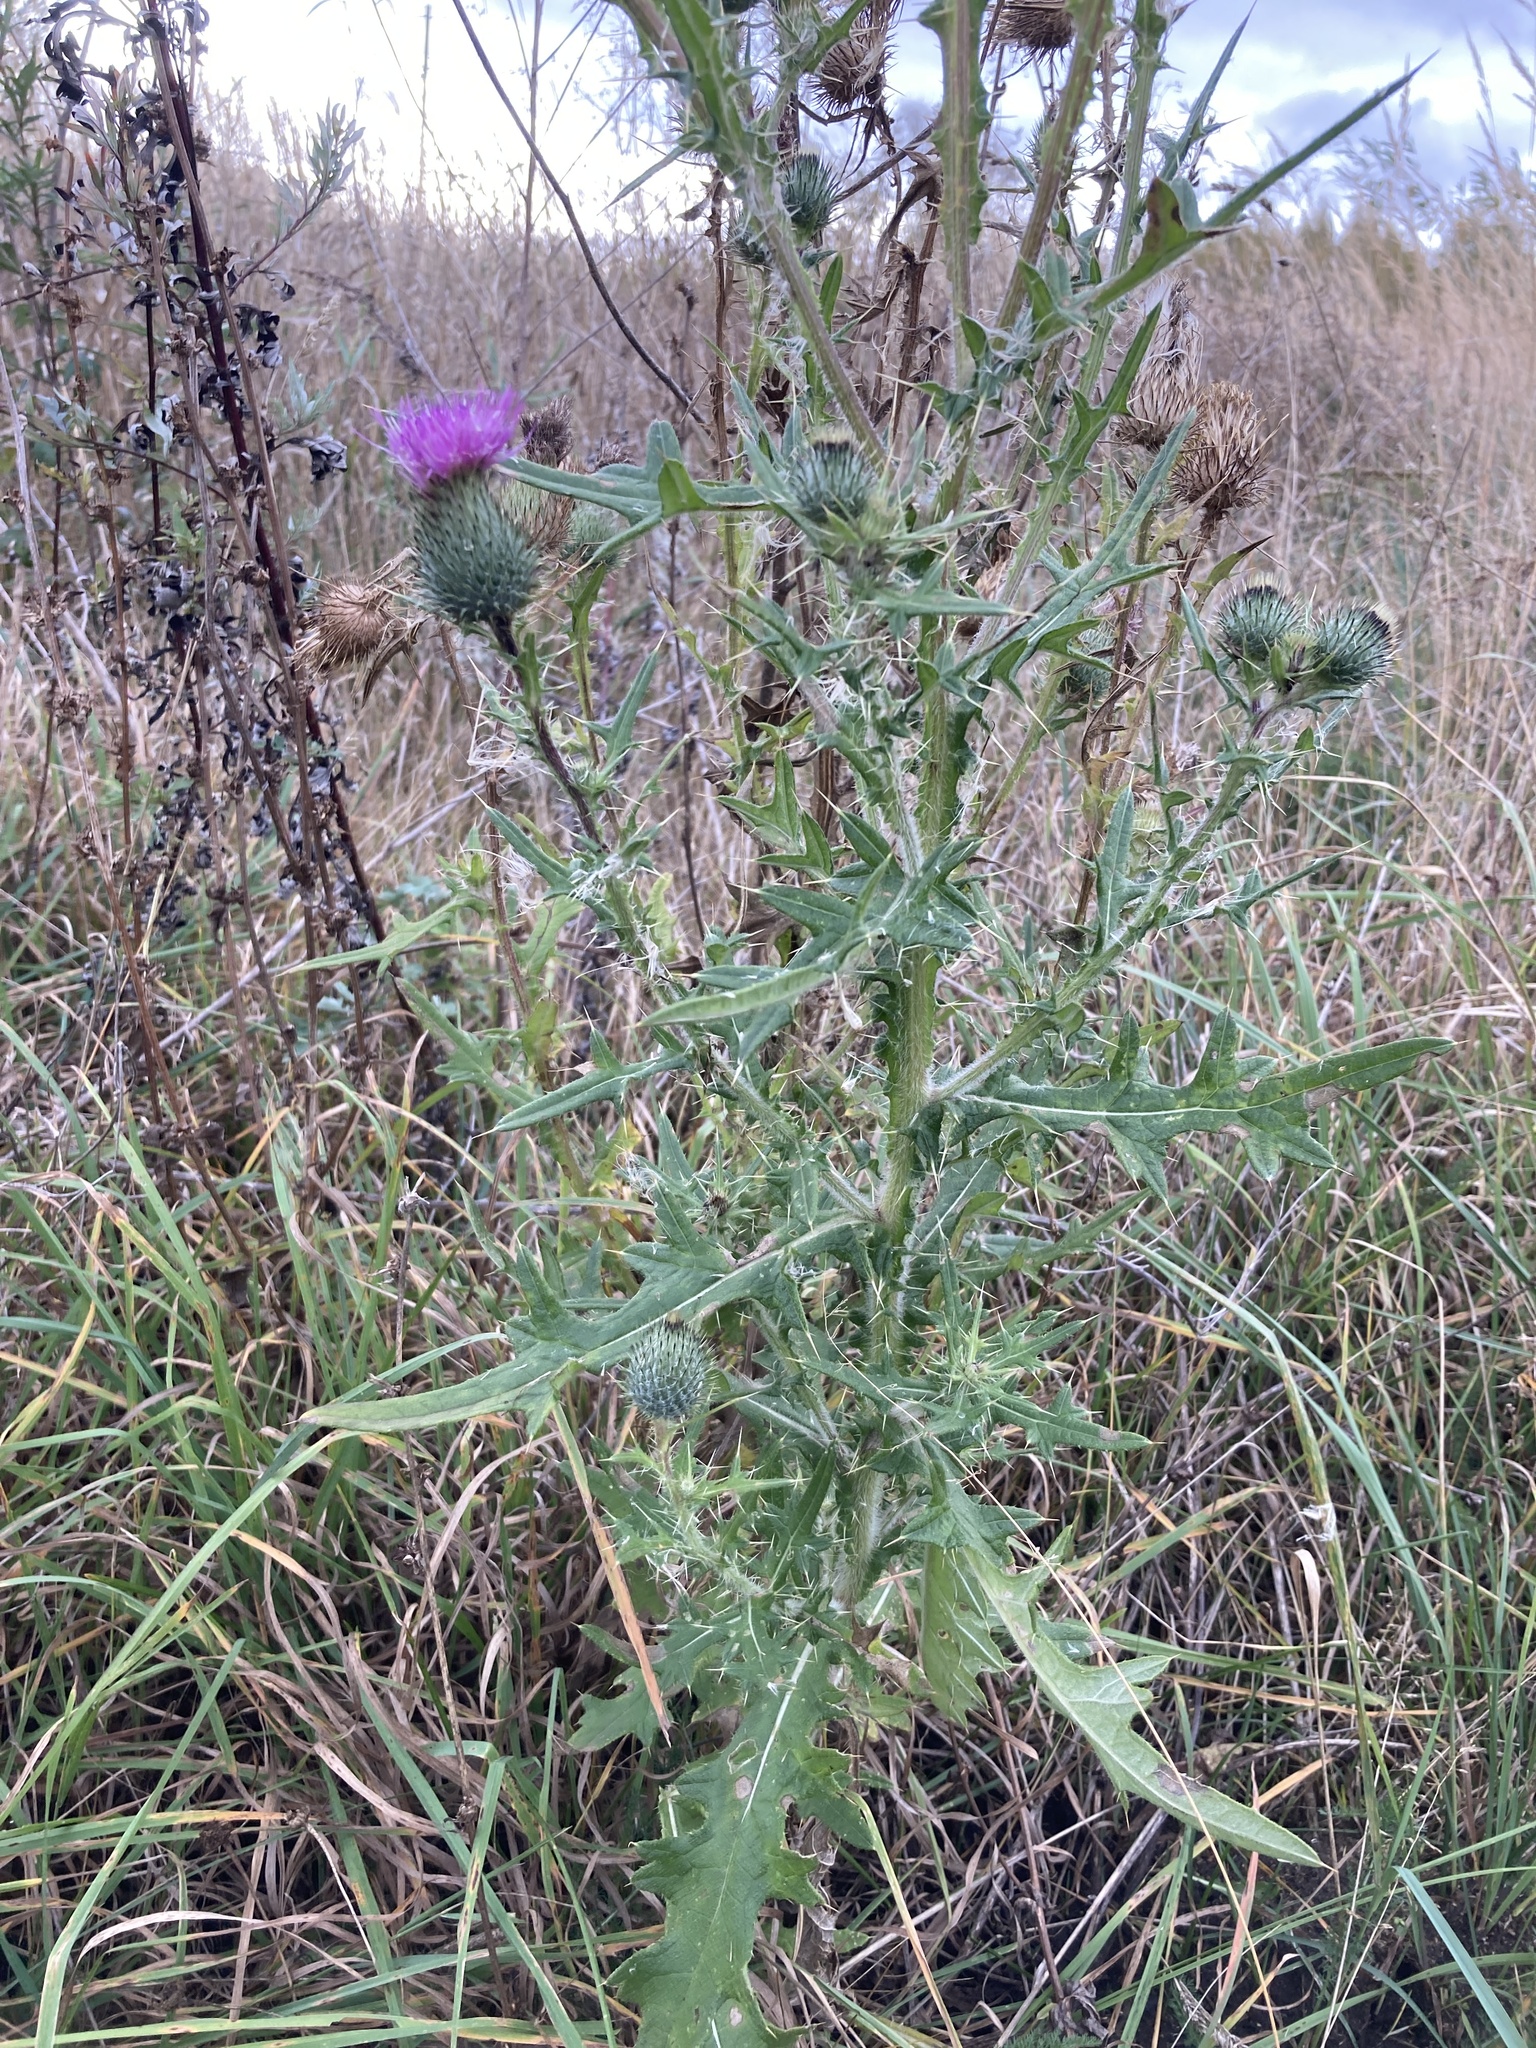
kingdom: Plantae
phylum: Tracheophyta
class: Magnoliopsida
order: Asterales
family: Asteraceae
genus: Cirsium
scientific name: Cirsium vulgare
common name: Bull thistle
